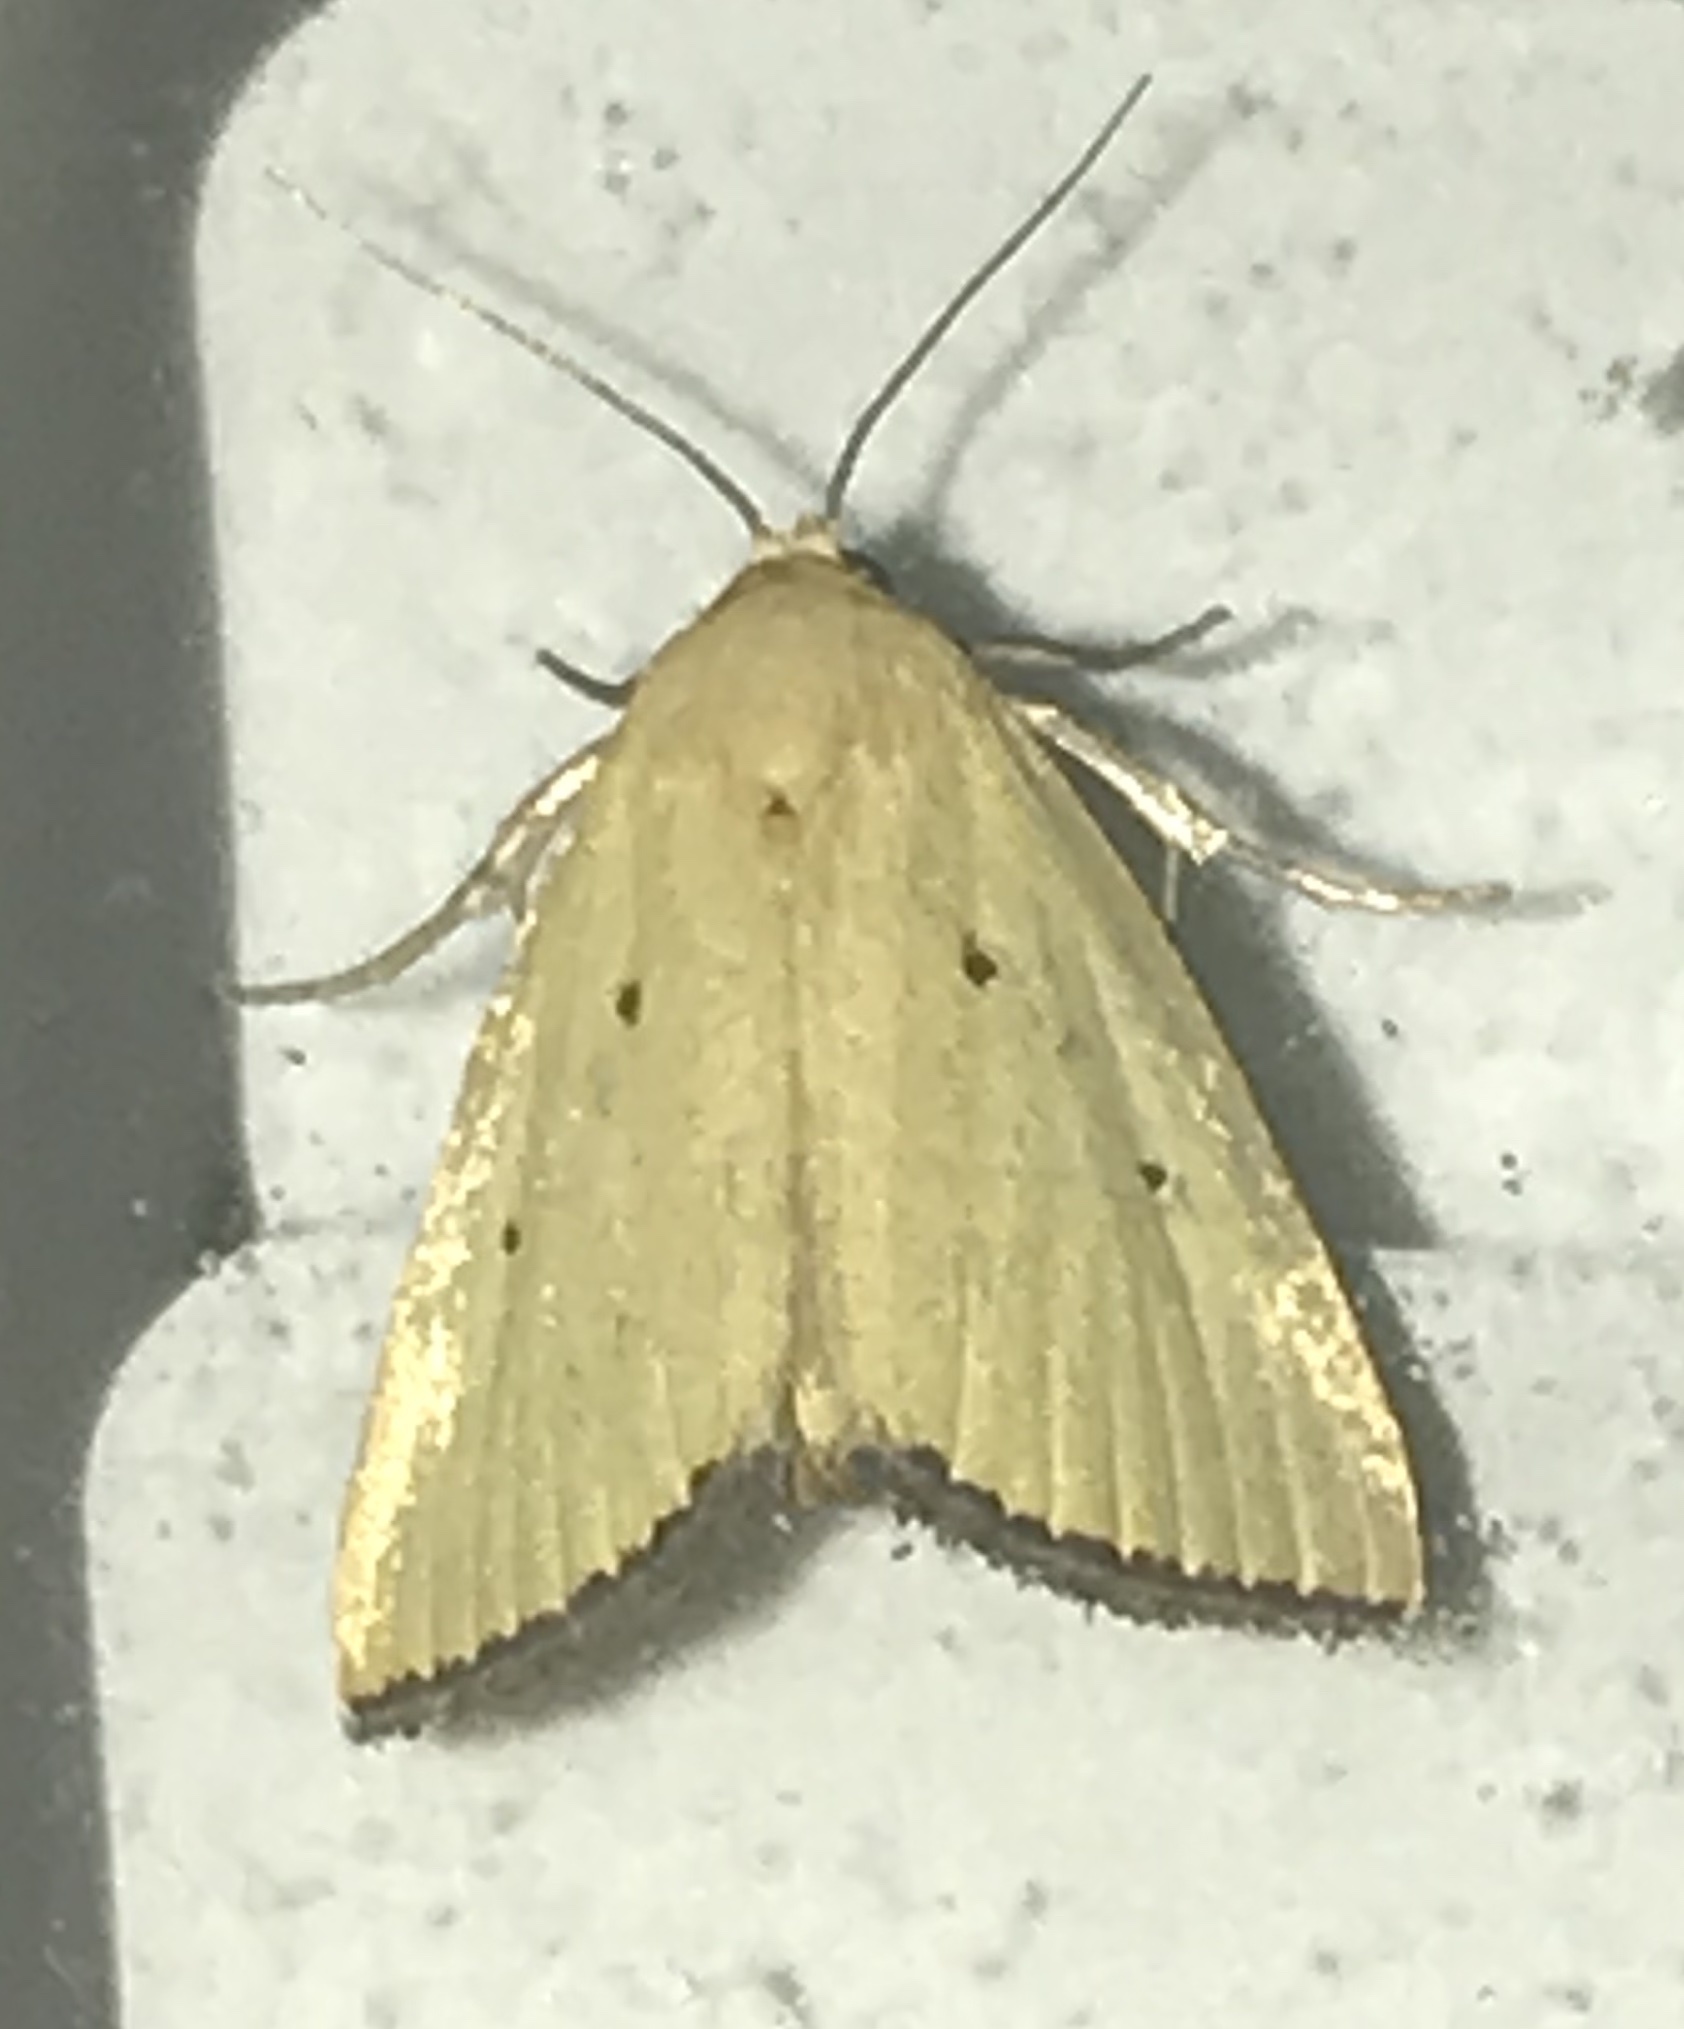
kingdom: Animalia
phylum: Arthropoda
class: Insecta
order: Lepidoptera
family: Noctuidae
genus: Marimatha
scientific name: Marimatha nigrofimbria
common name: Black-bordered lemon moth
